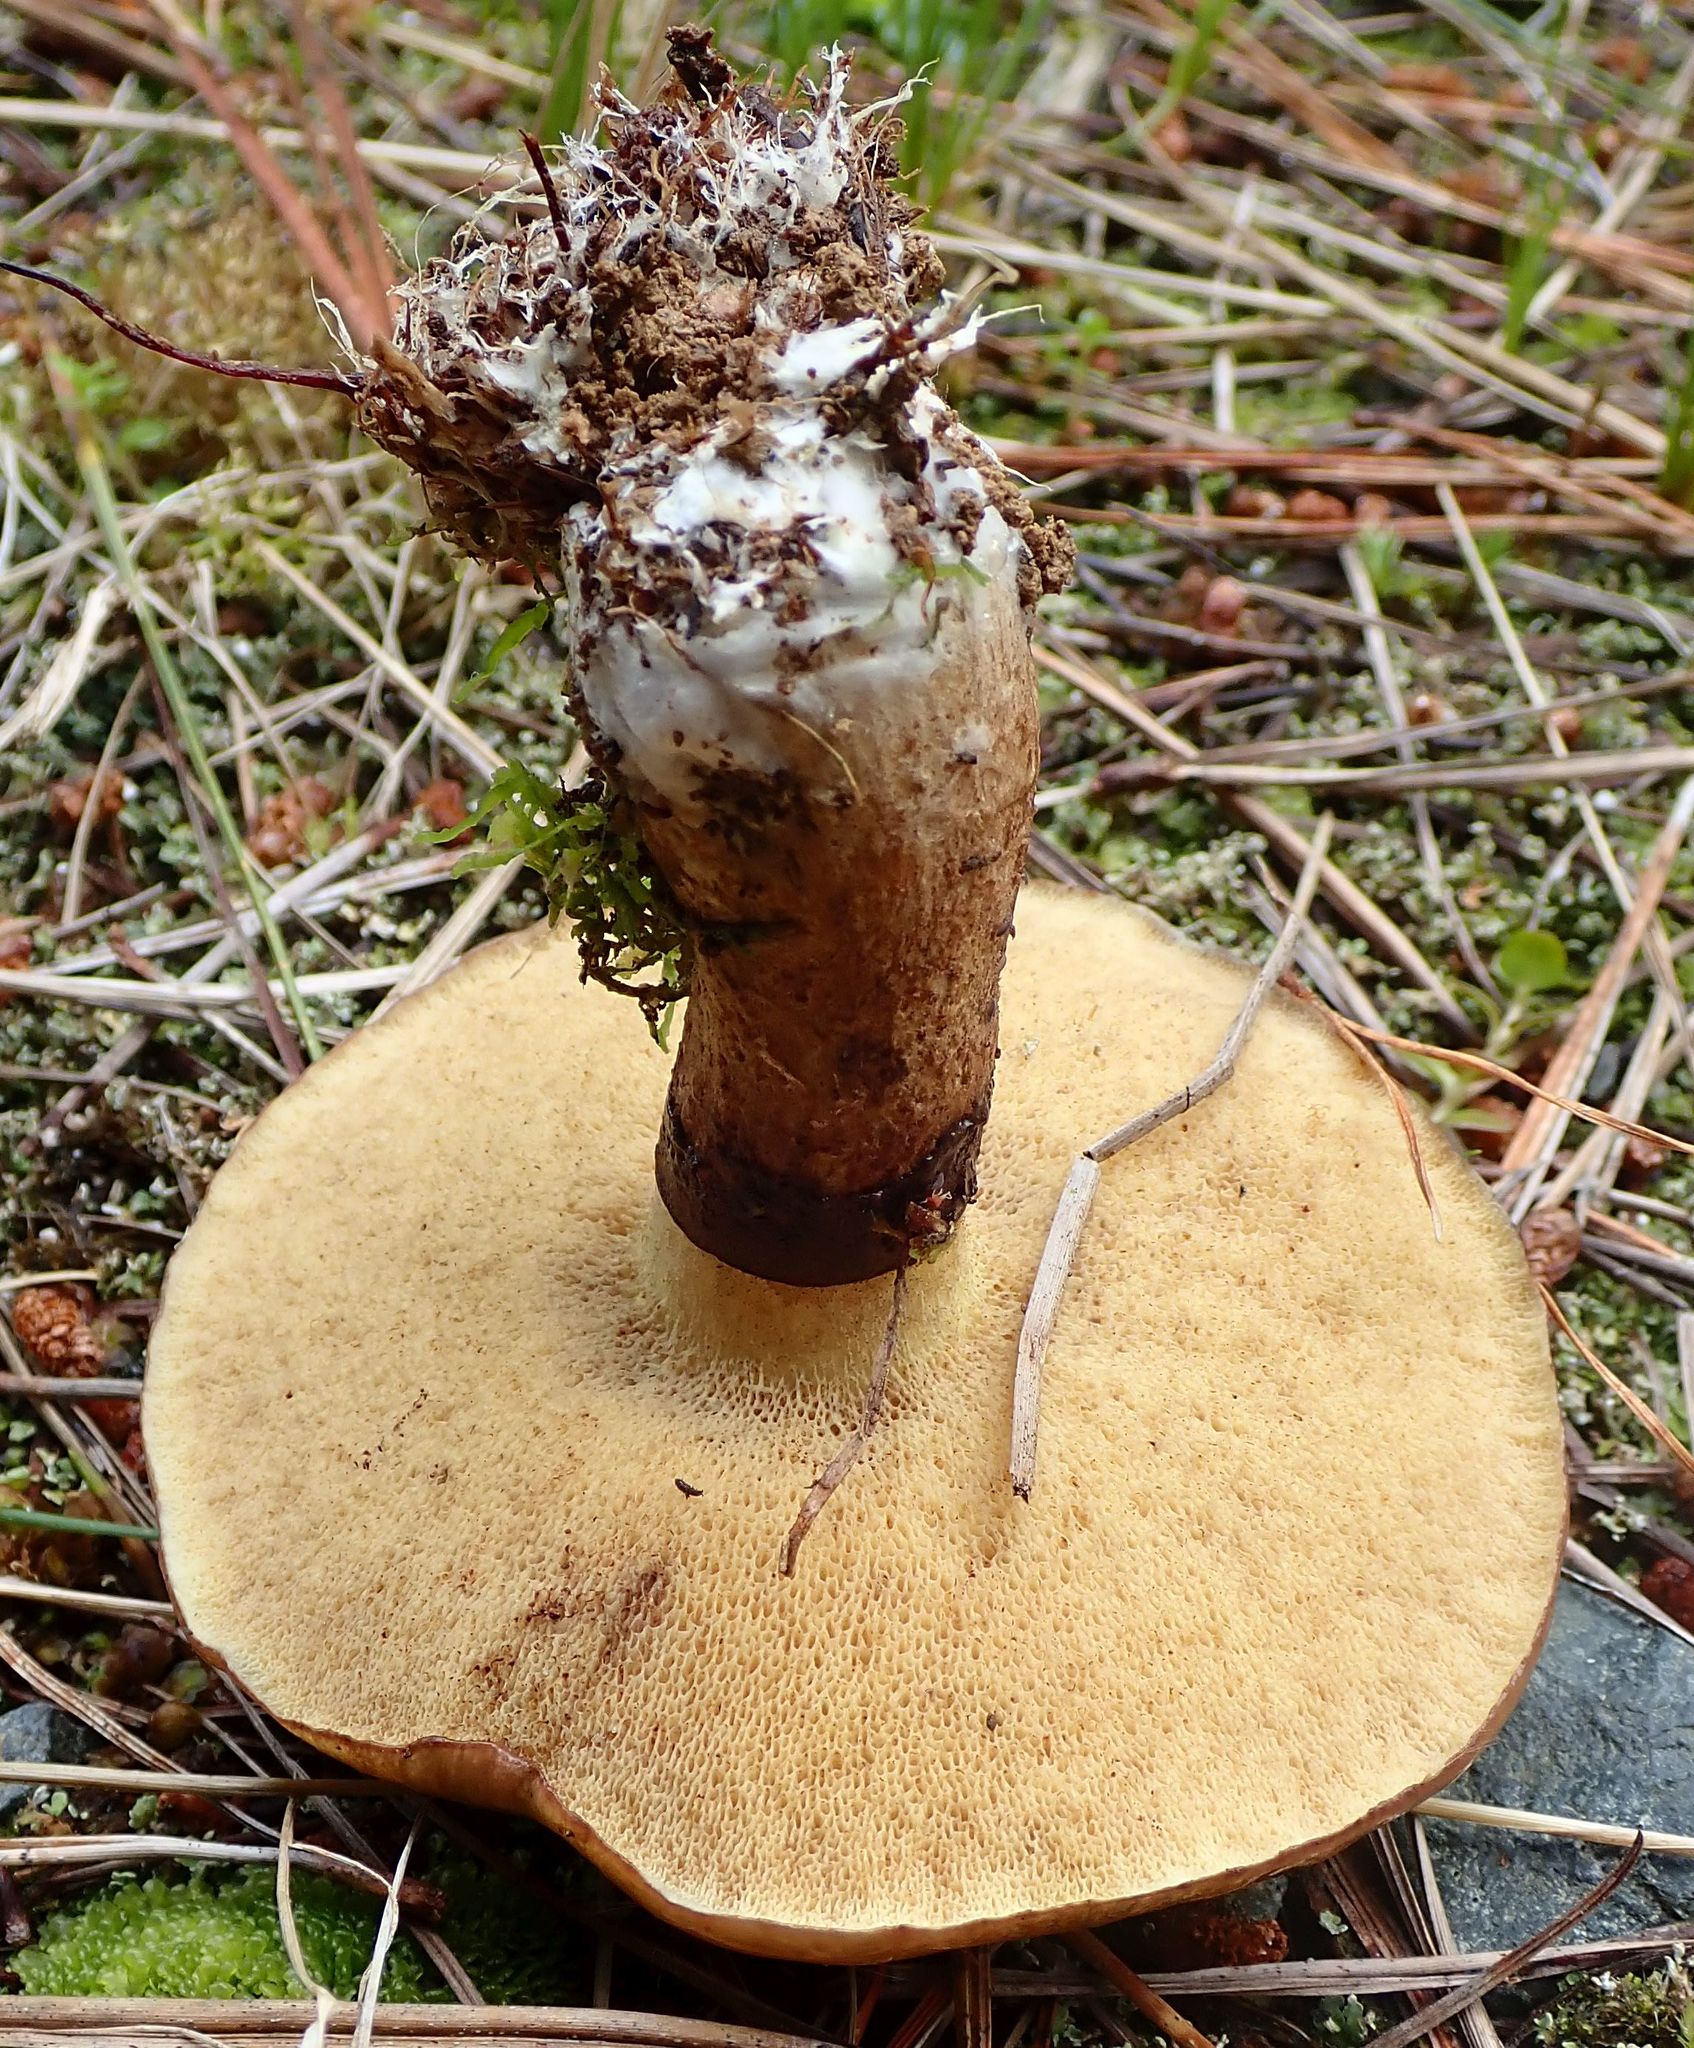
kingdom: Fungi
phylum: Basidiomycota
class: Agaricomycetes
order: Boletales
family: Suillaceae
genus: Suillus
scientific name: Suillus luteus
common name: Slippery jack
